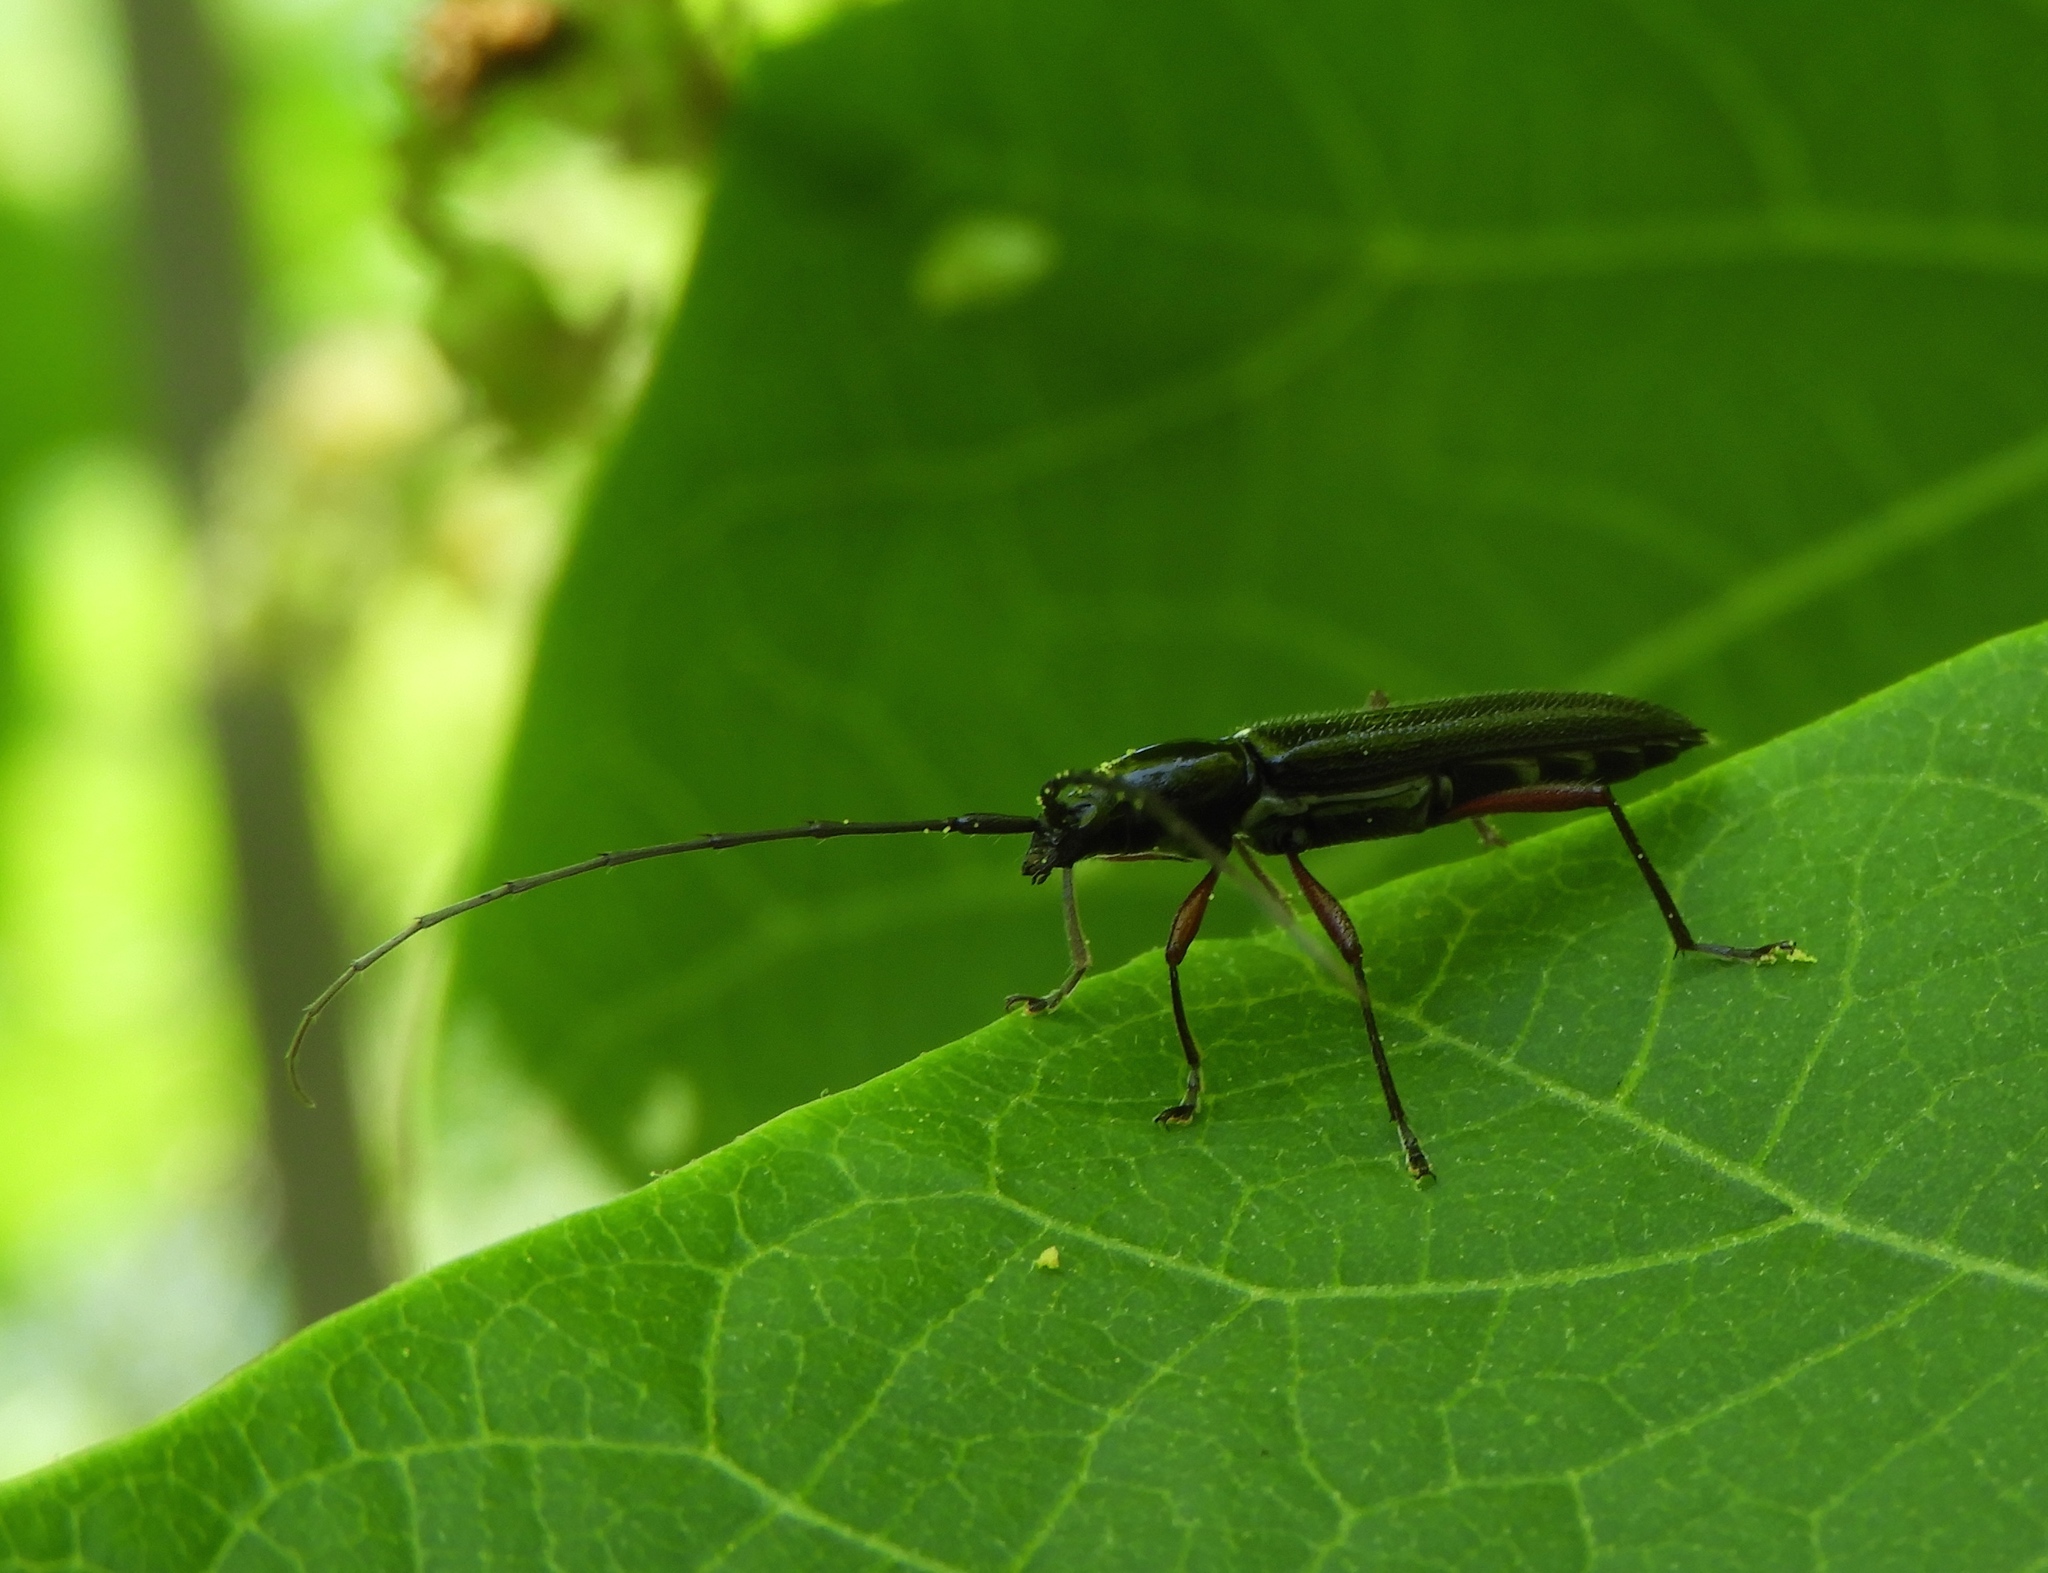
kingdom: Animalia
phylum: Arthropoda
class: Insecta
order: Coleoptera
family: Cerambycidae
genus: Stenosphenus
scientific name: Stenosphenus
